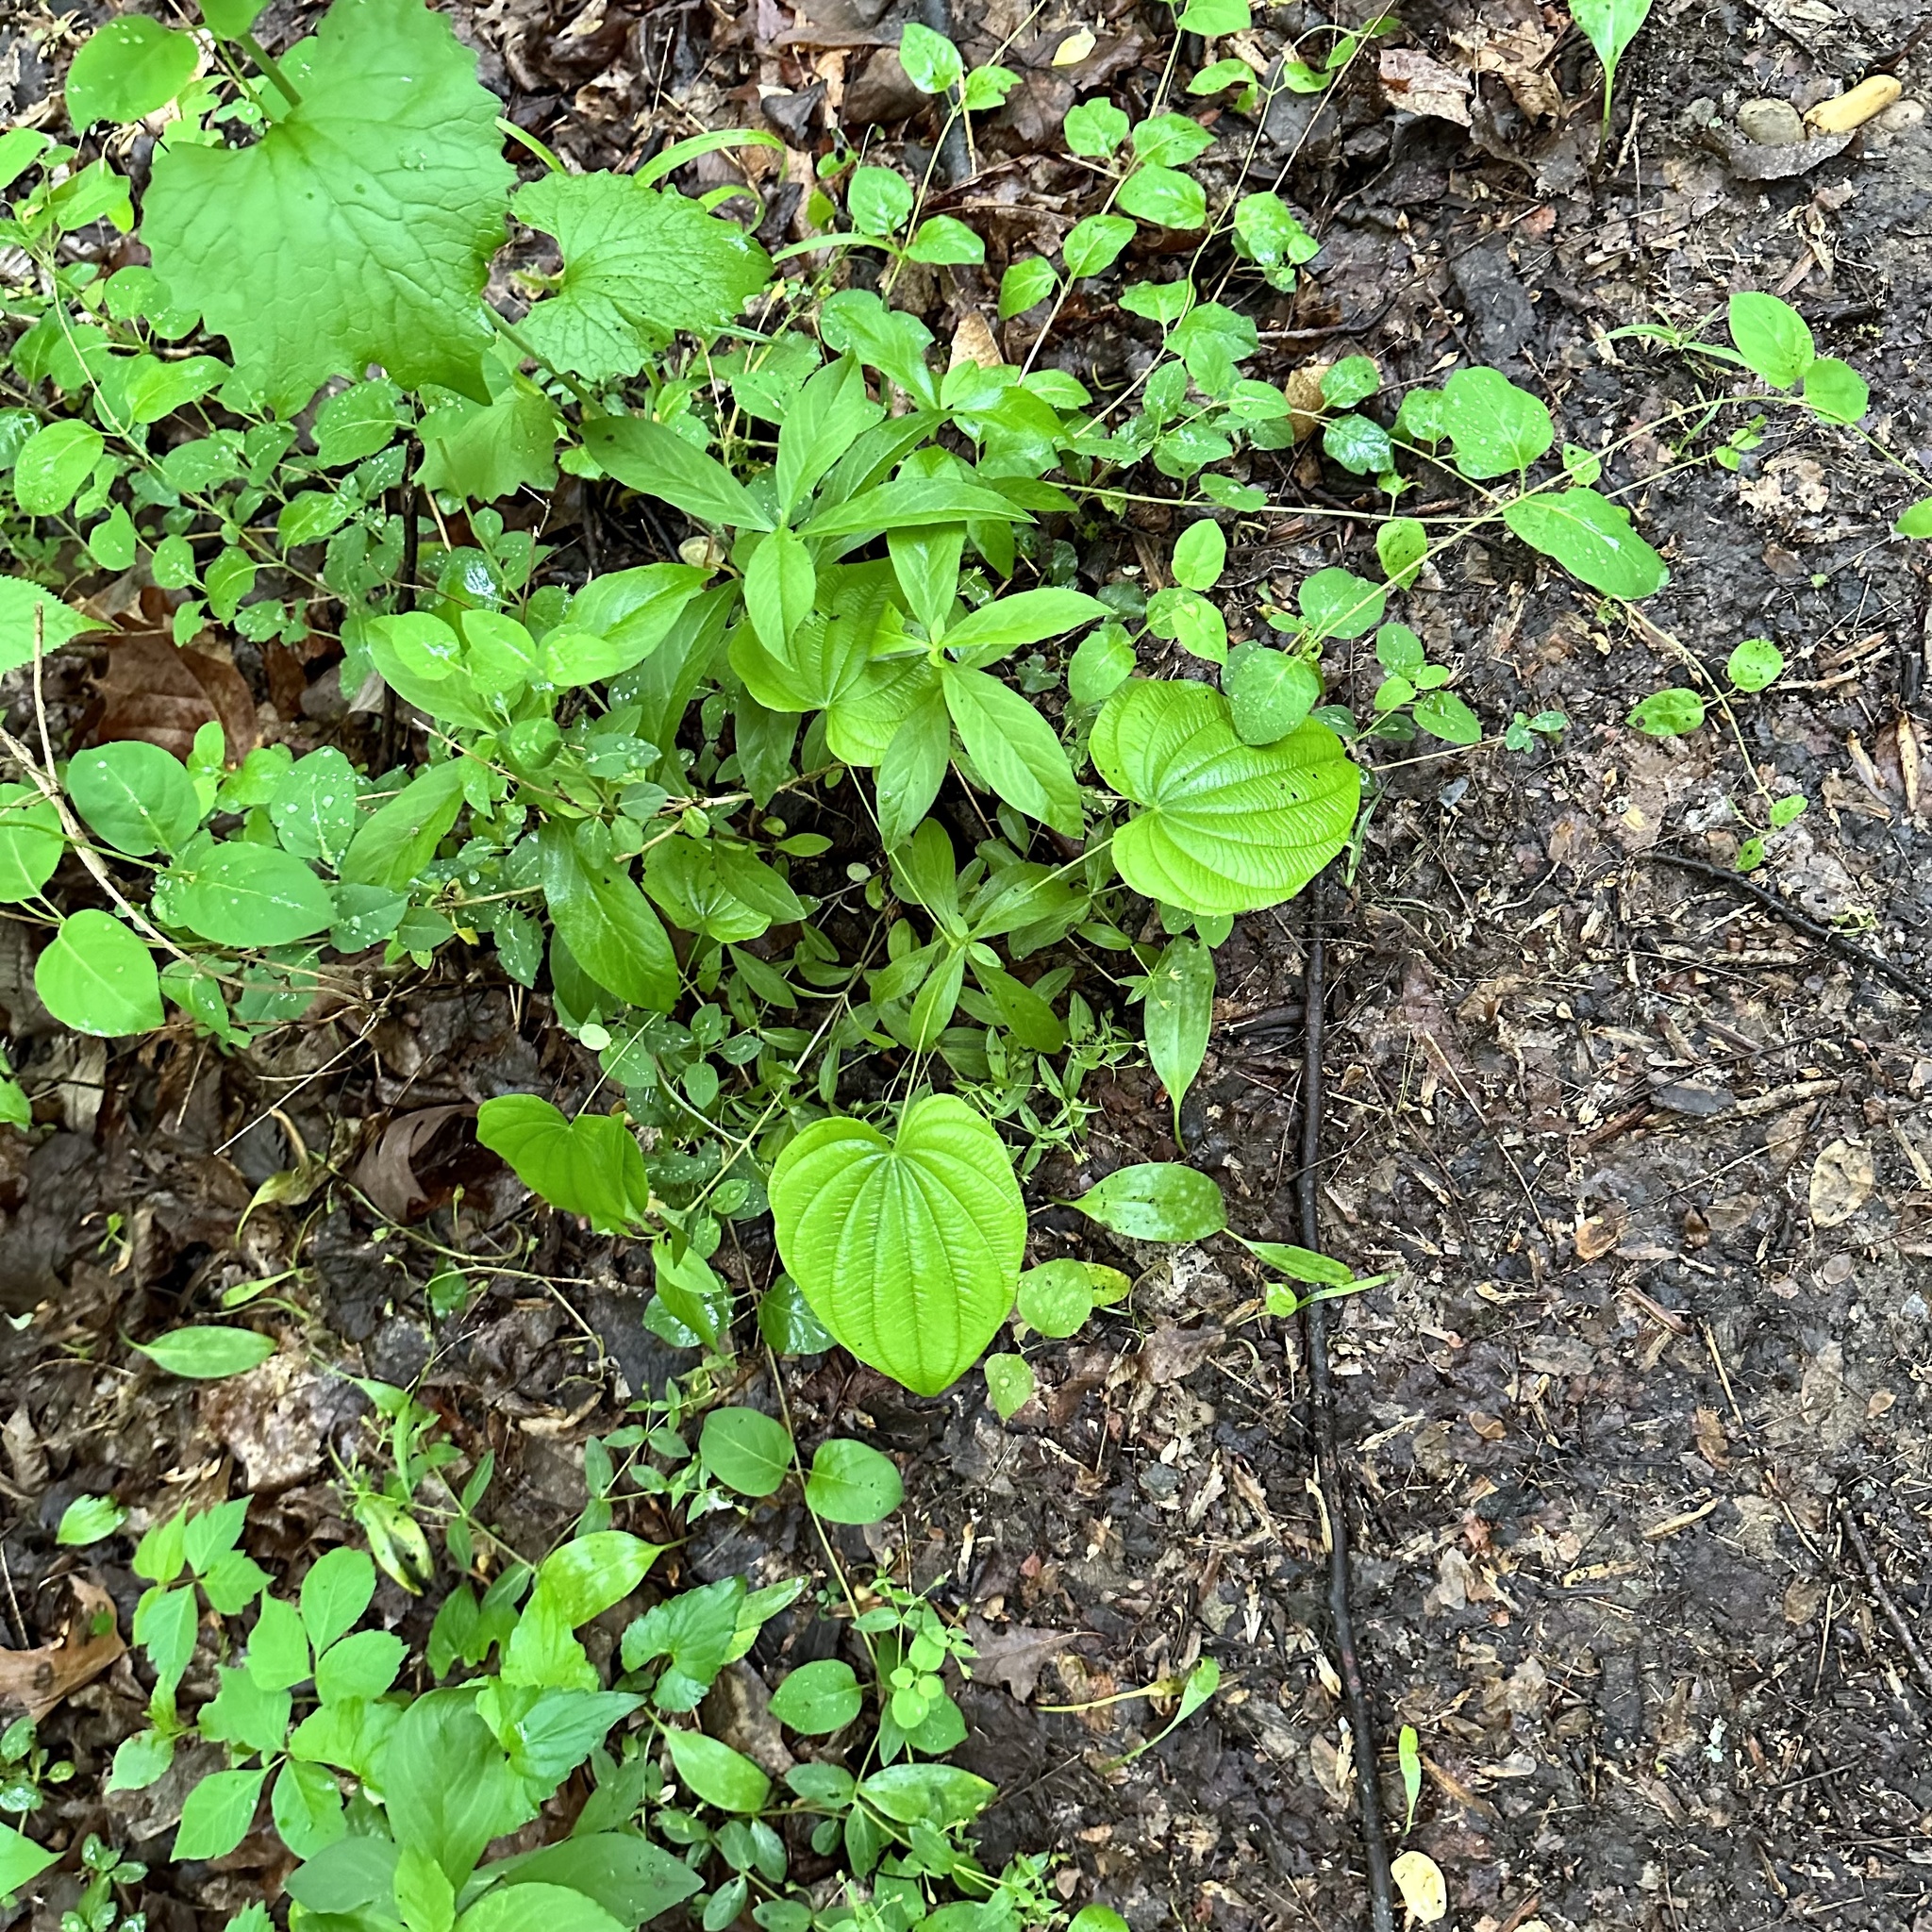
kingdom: Plantae
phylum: Tracheophyta
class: Liliopsida
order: Dioscoreales
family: Dioscoreaceae
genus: Dioscorea
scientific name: Dioscorea villosa
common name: Wild yam
